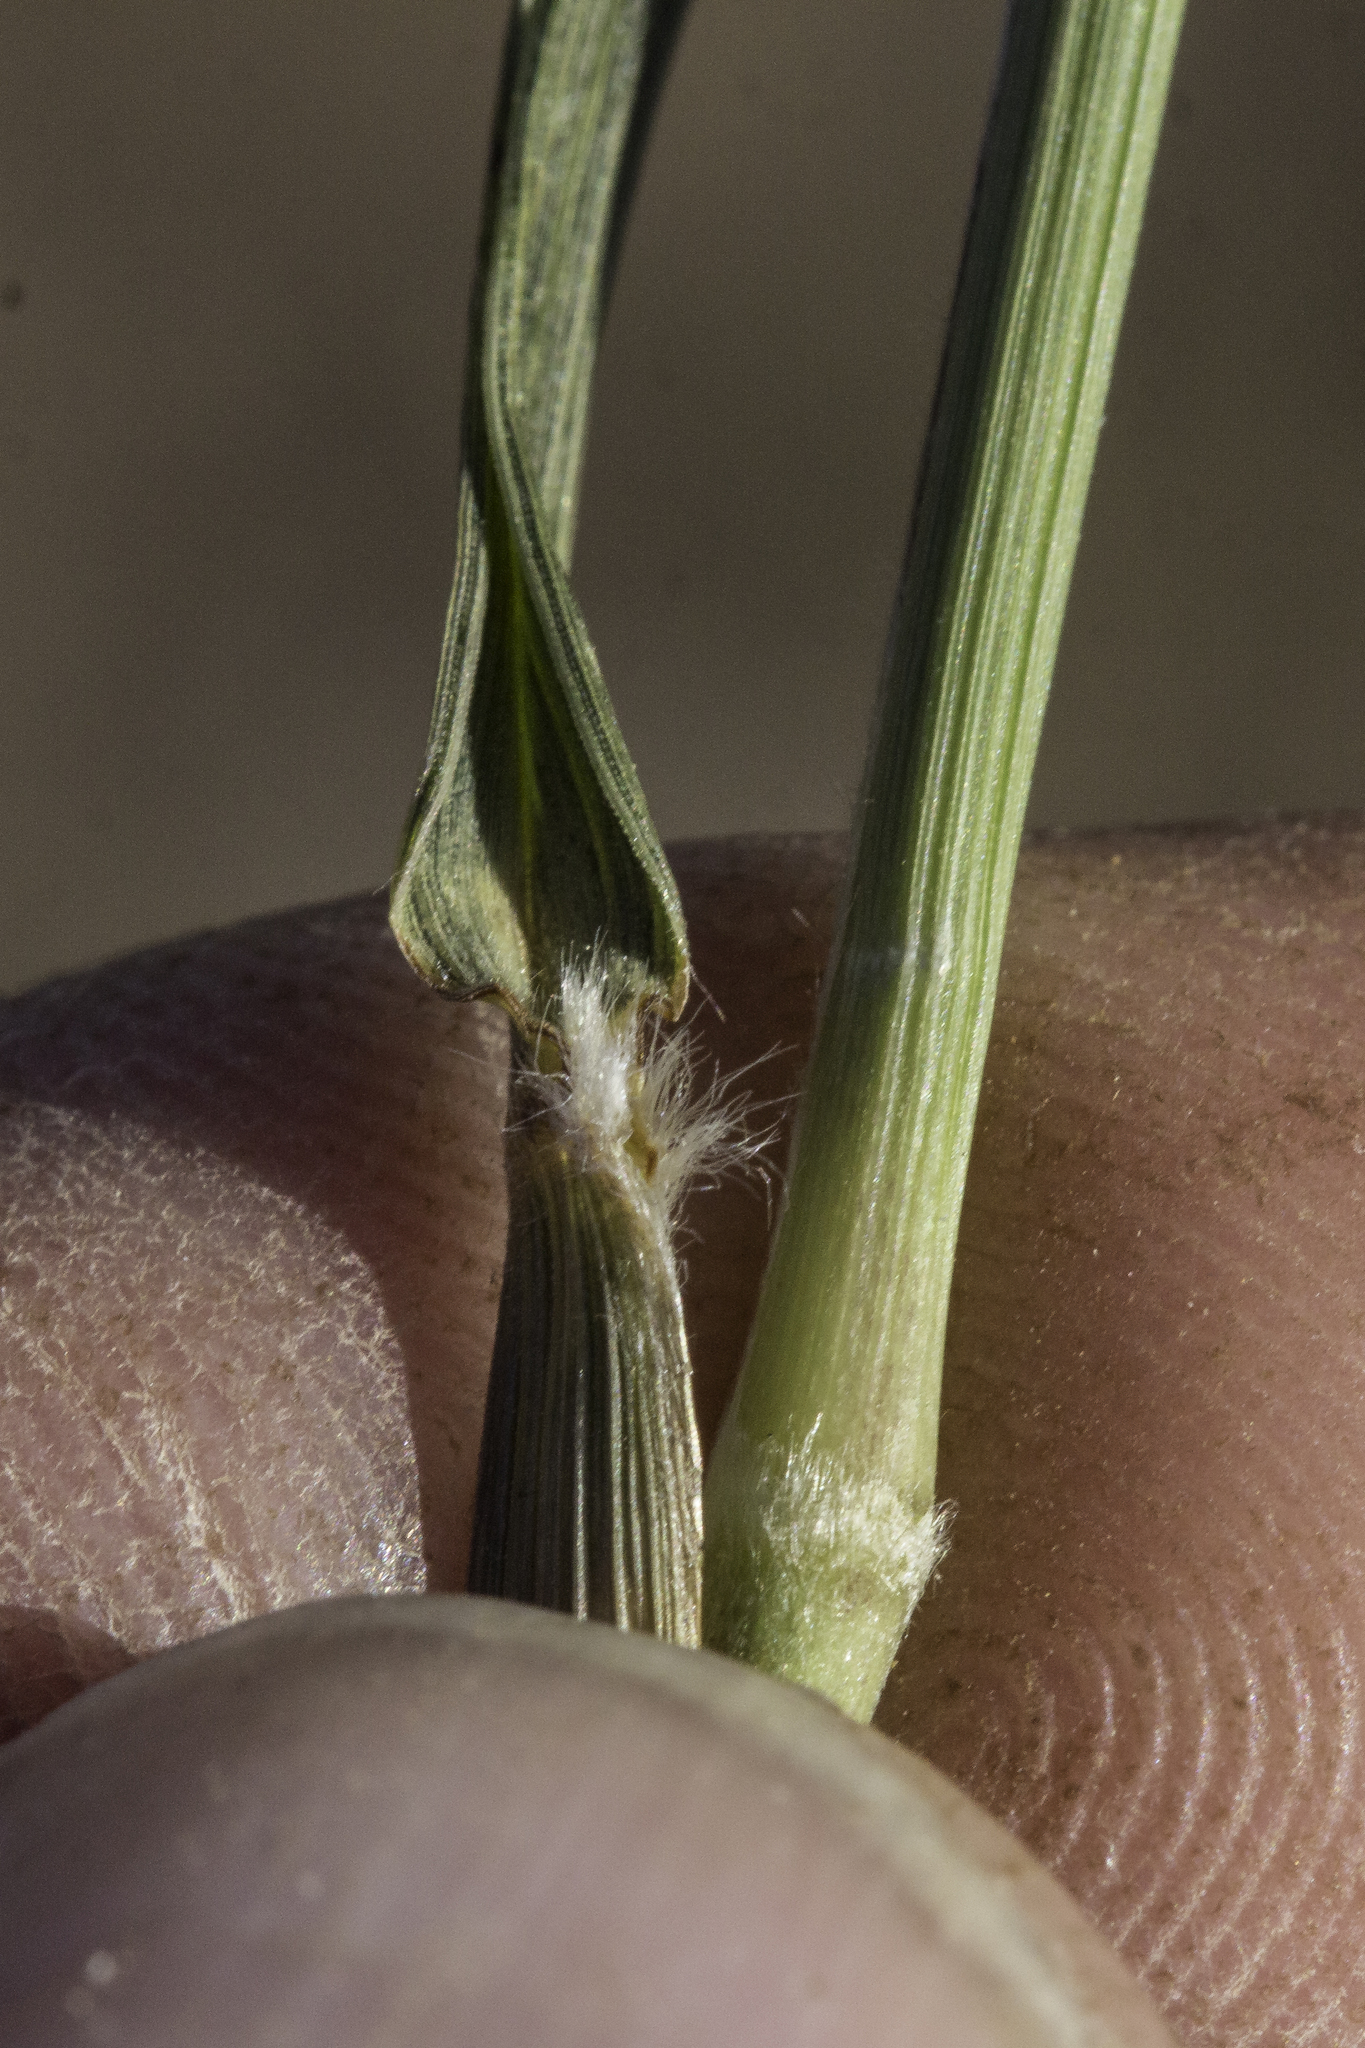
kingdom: Plantae
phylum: Tracheophyta
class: Liliopsida
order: Poales
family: Poaceae
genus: Setaria
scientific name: Setaria leucopila
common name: Plains bristle grass
